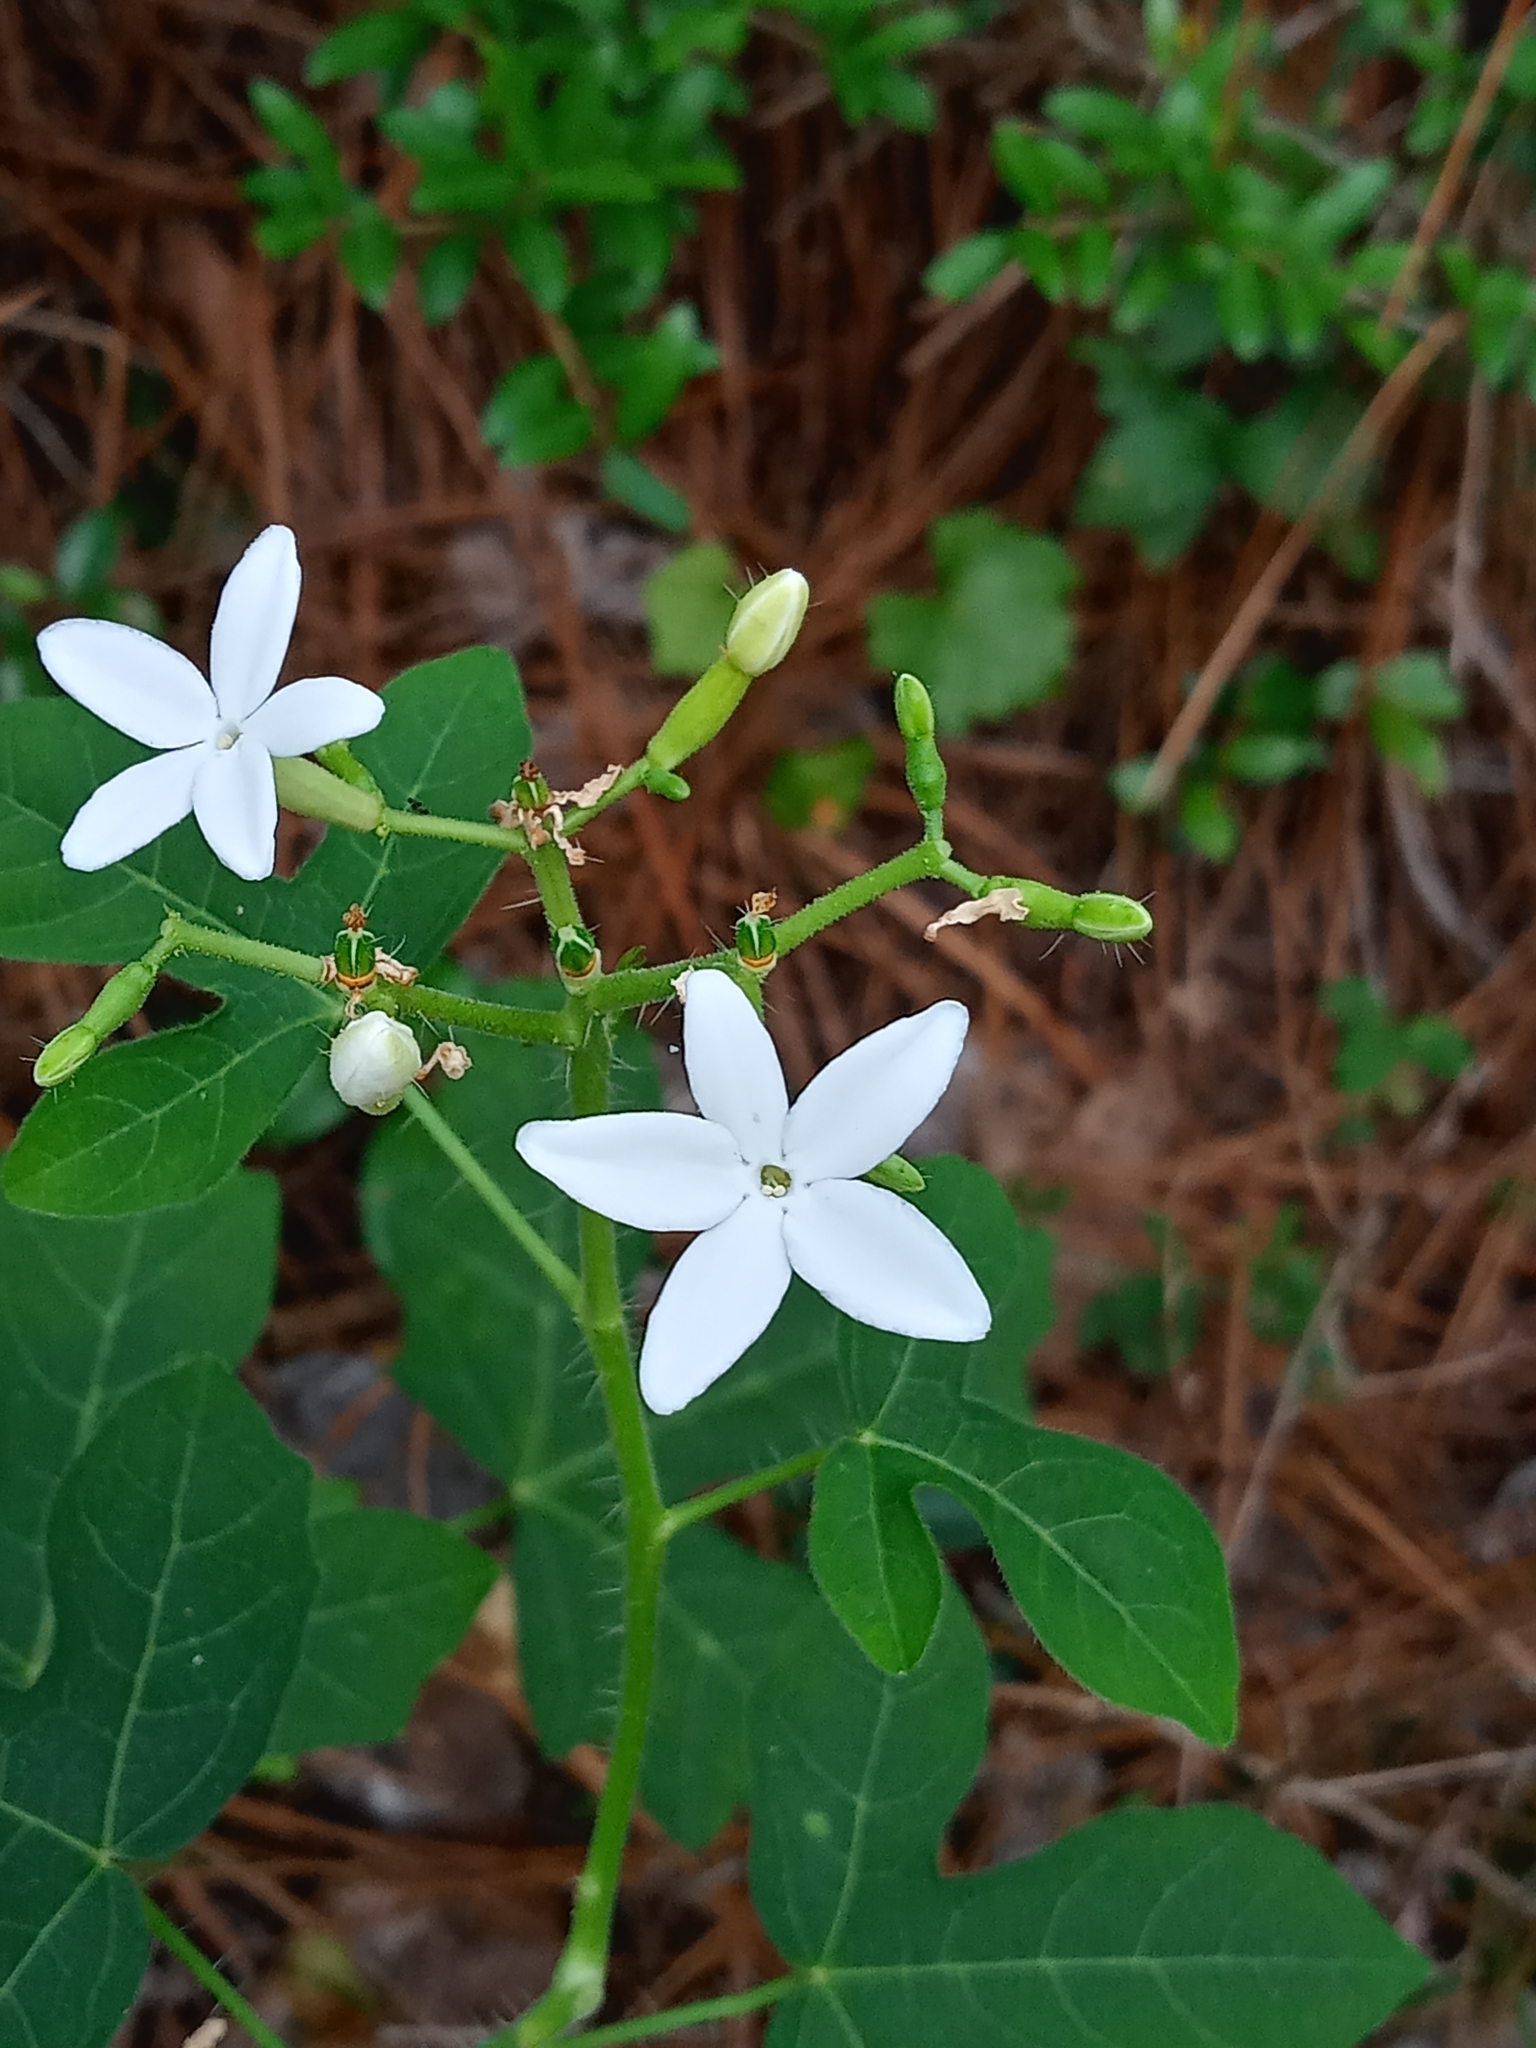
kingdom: Plantae
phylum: Tracheophyta
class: Magnoliopsida
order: Malpighiales
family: Euphorbiaceae
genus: Cnidoscolus
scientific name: Cnidoscolus stimulosus
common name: Bull-nettle
